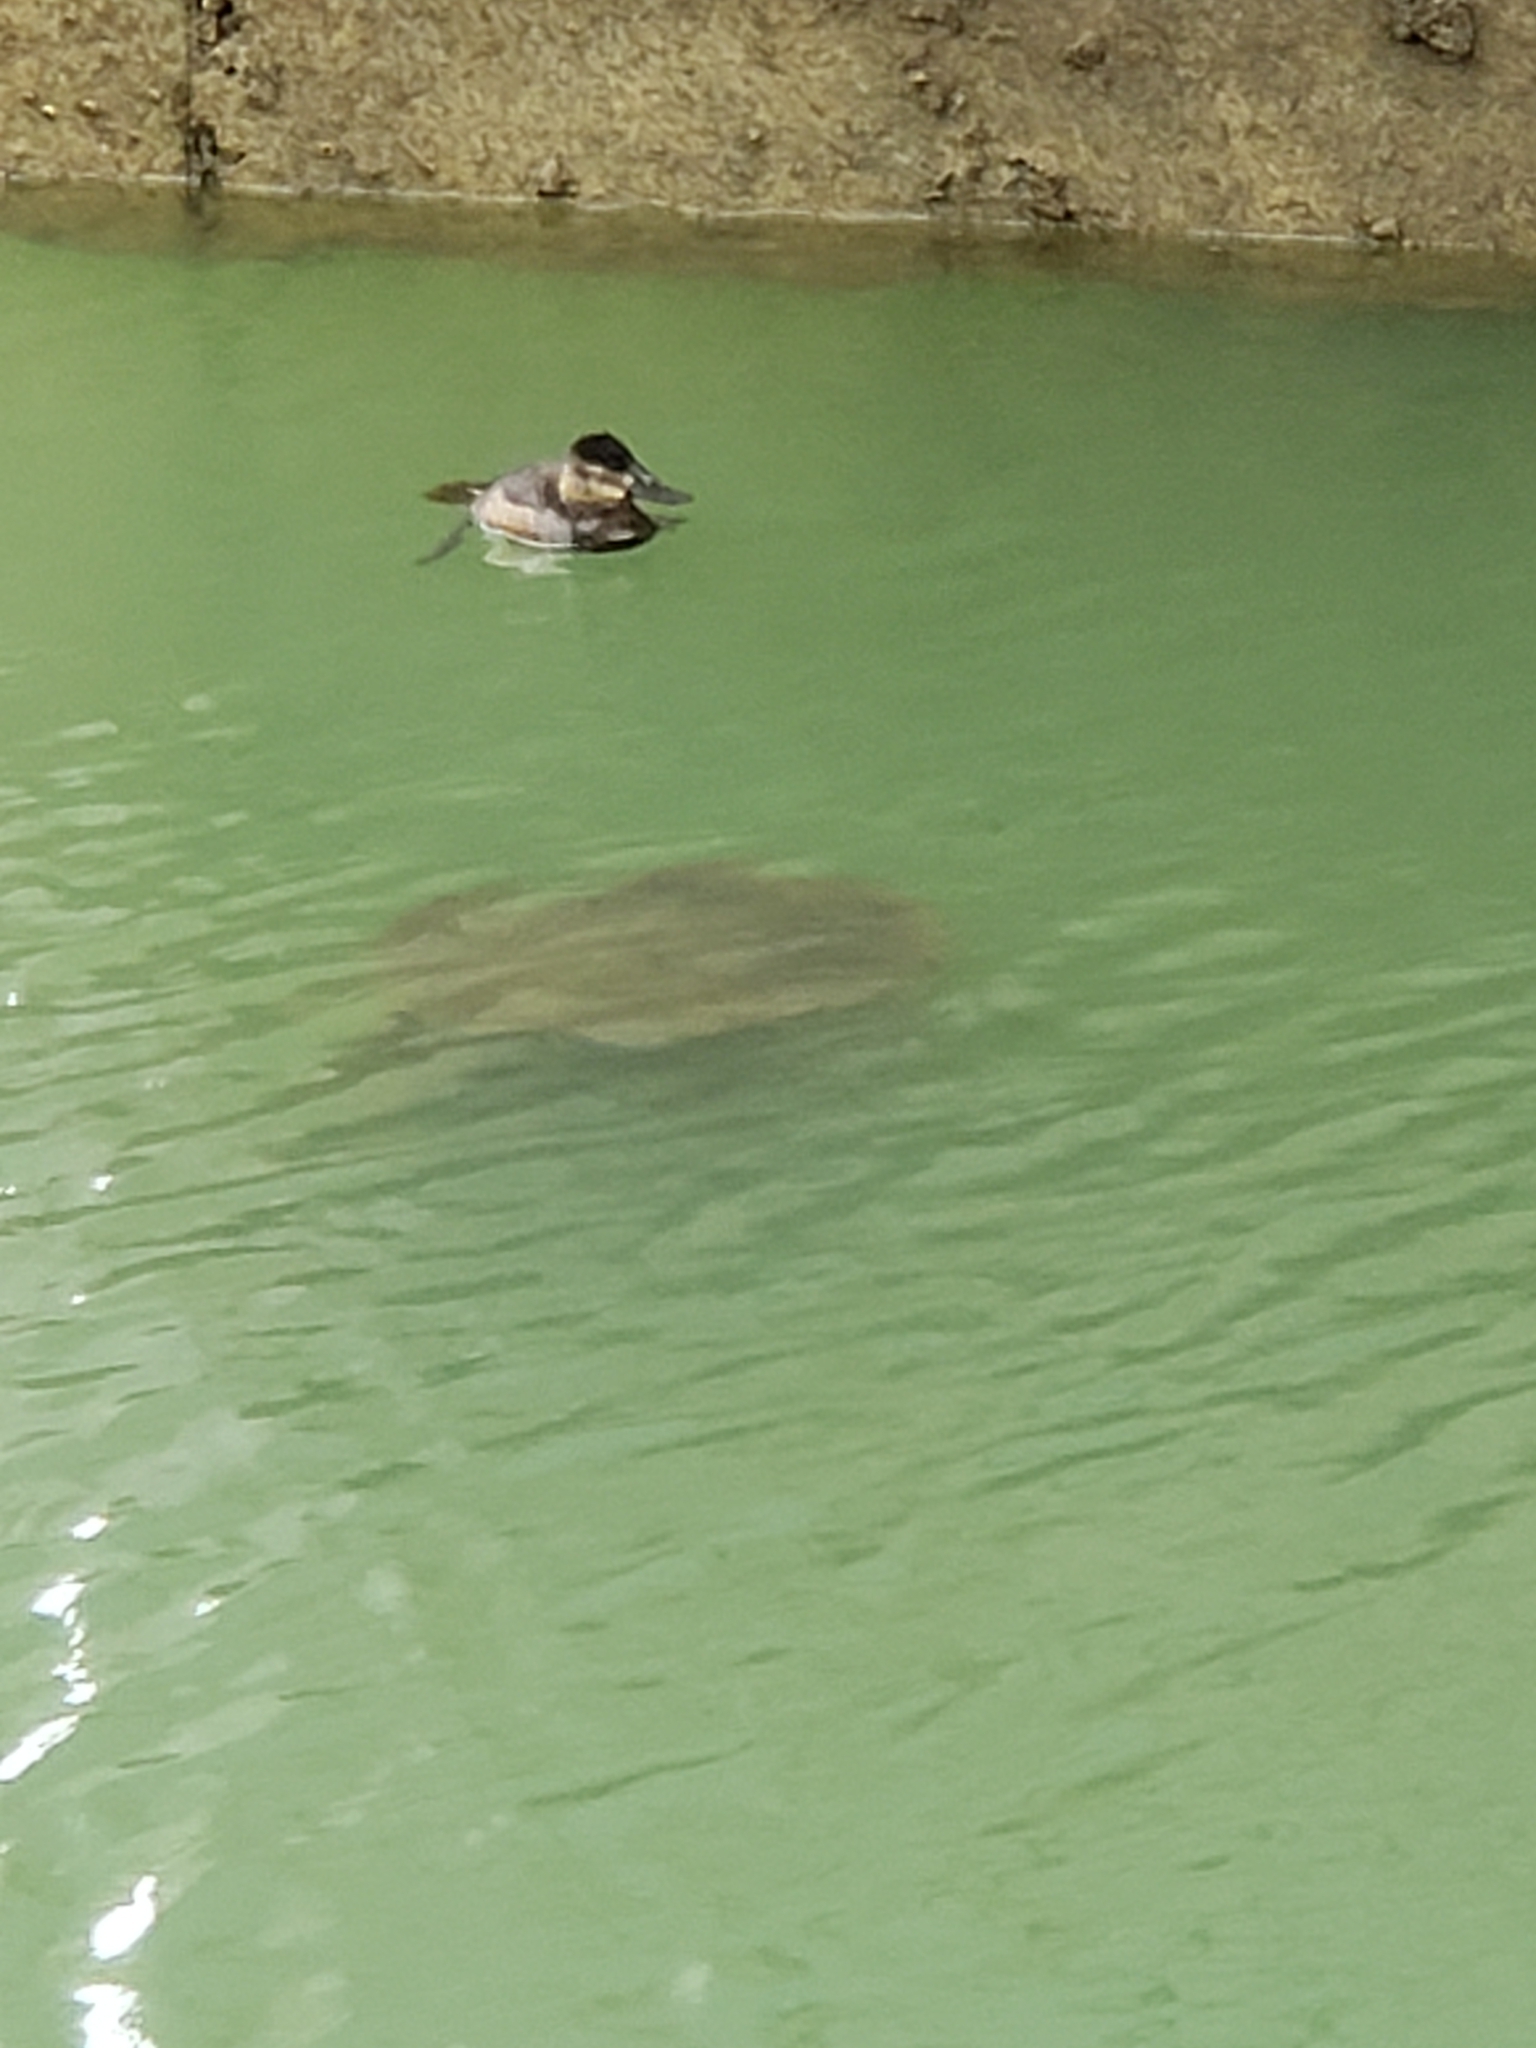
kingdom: Animalia
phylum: Chordata
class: Aves
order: Anseriformes
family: Anatidae
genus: Oxyura
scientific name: Oxyura jamaicensis
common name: Ruddy duck
